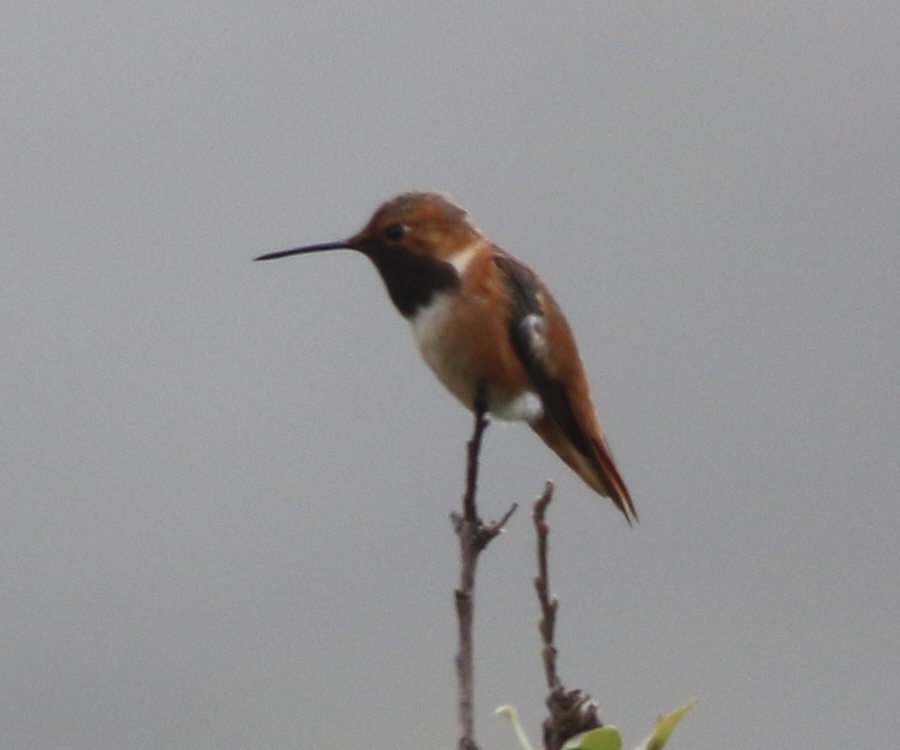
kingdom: Animalia
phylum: Chordata
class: Aves
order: Apodiformes
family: Trochilidae
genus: Selasphorus
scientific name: Selasphorus sasin
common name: Allen's hummingbird
